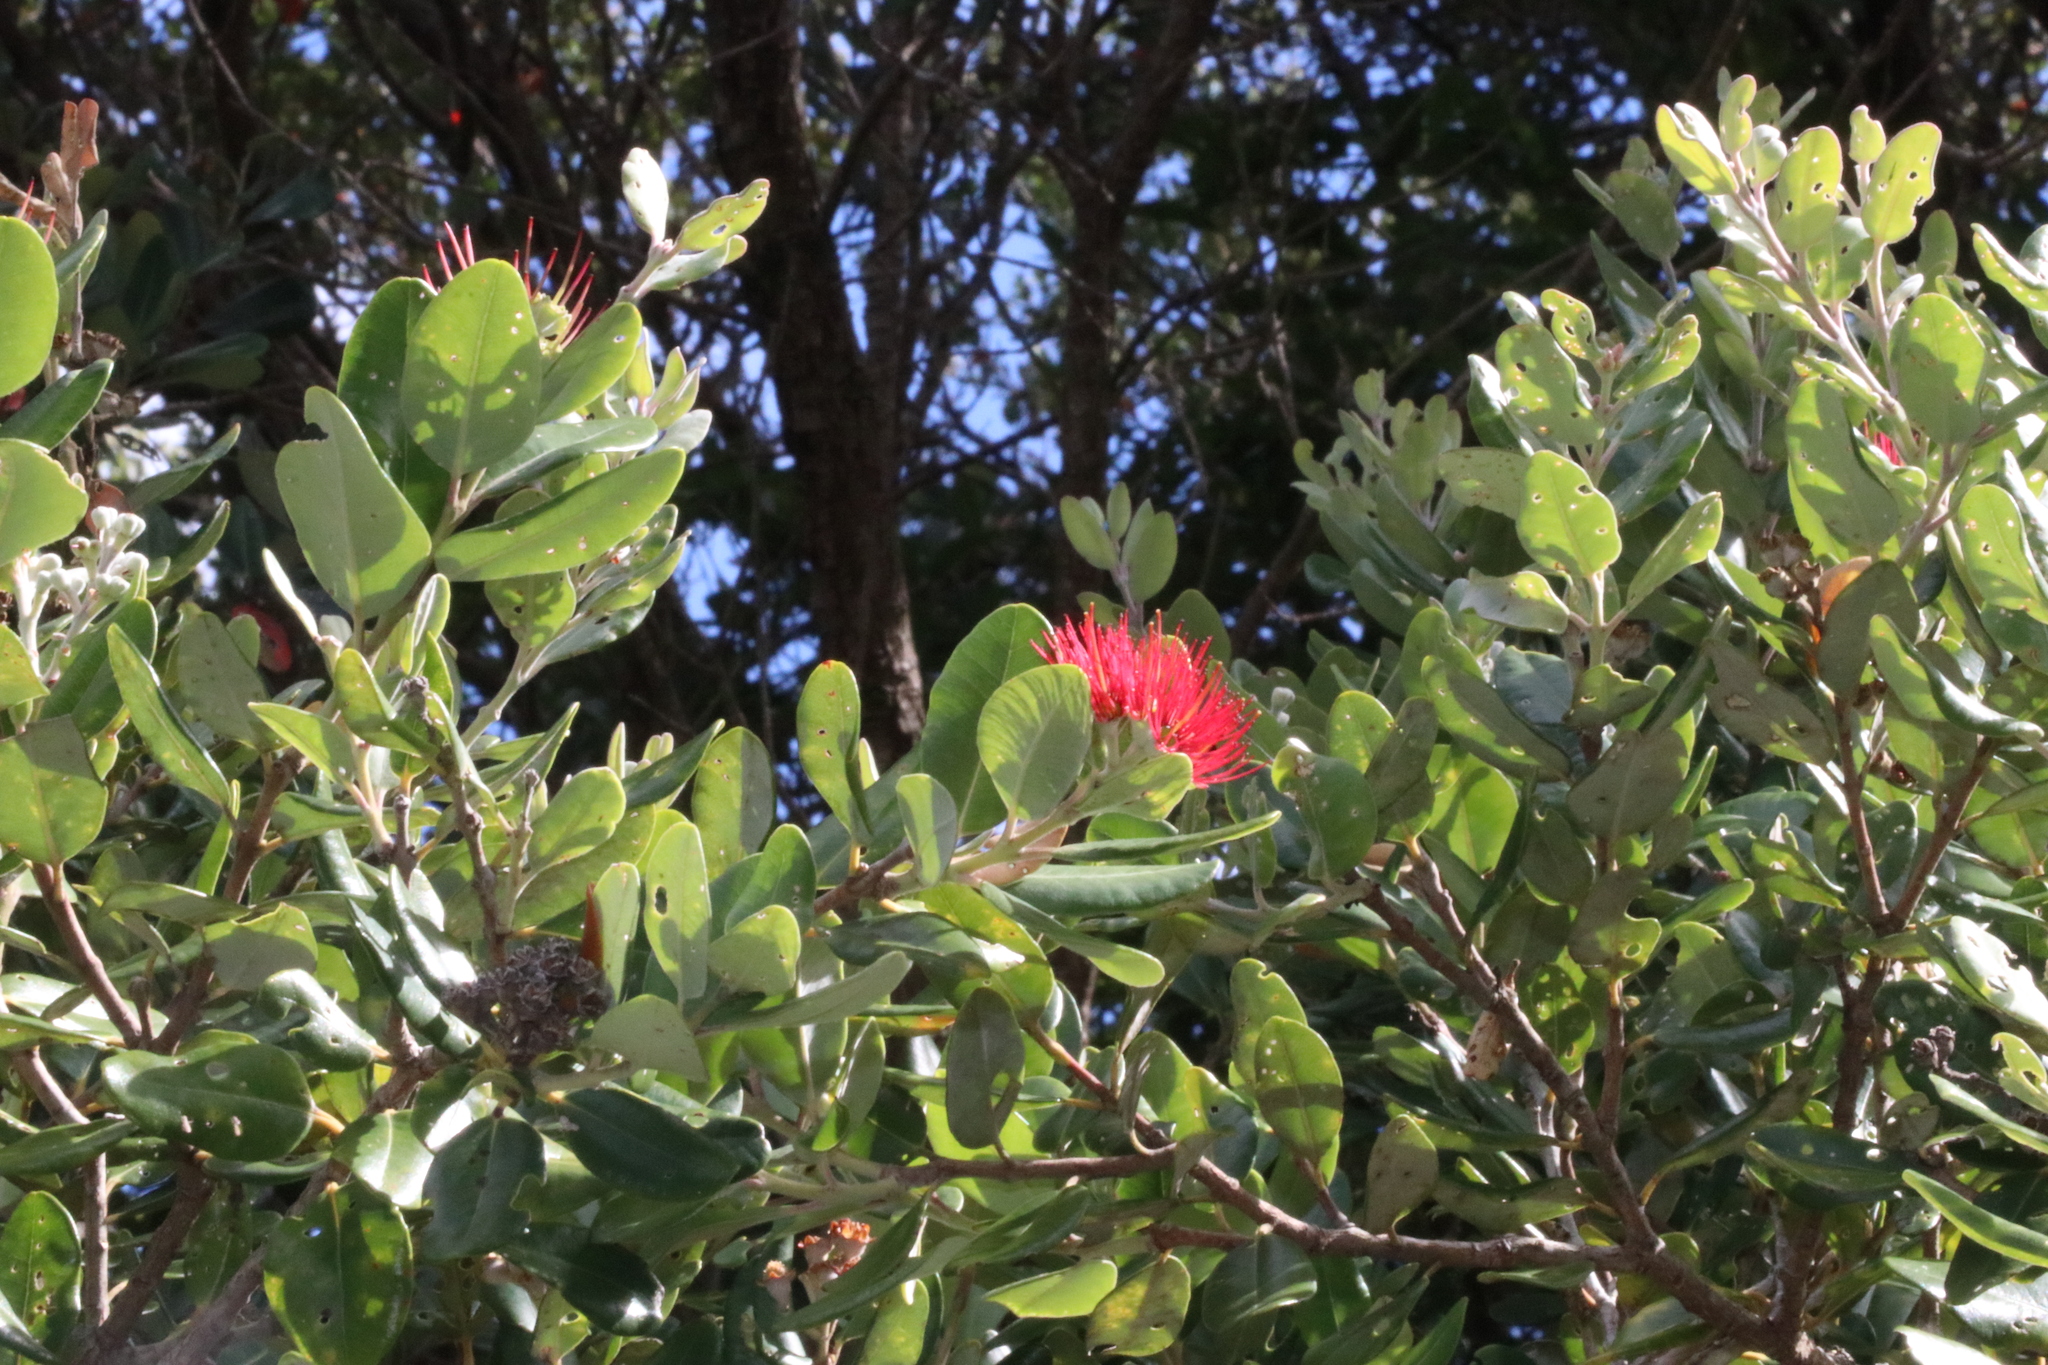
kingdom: Plantae
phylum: Tracheophyta
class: Magnoliopsida
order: Myrtales
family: Myrtaceae
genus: Metrosideros
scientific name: Metrosideros excelsa
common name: New zealand christmastree
